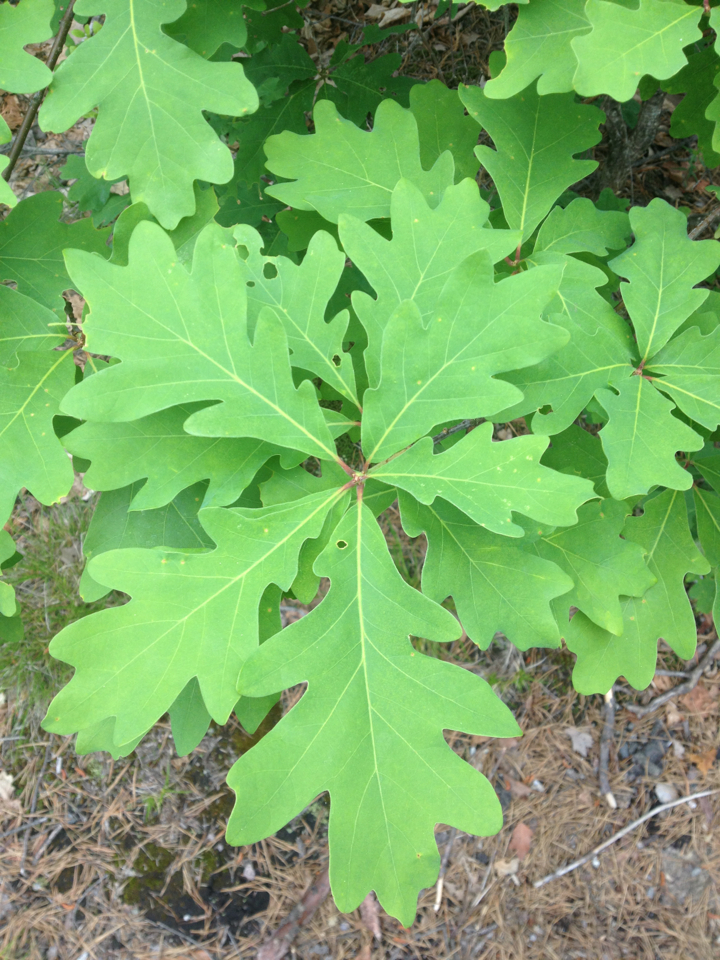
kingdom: Plantae
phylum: Tracheophyta
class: Magnoliopsida
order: Fagales
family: Fagaceae
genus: Quercus
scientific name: Quercus alba
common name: White oak
